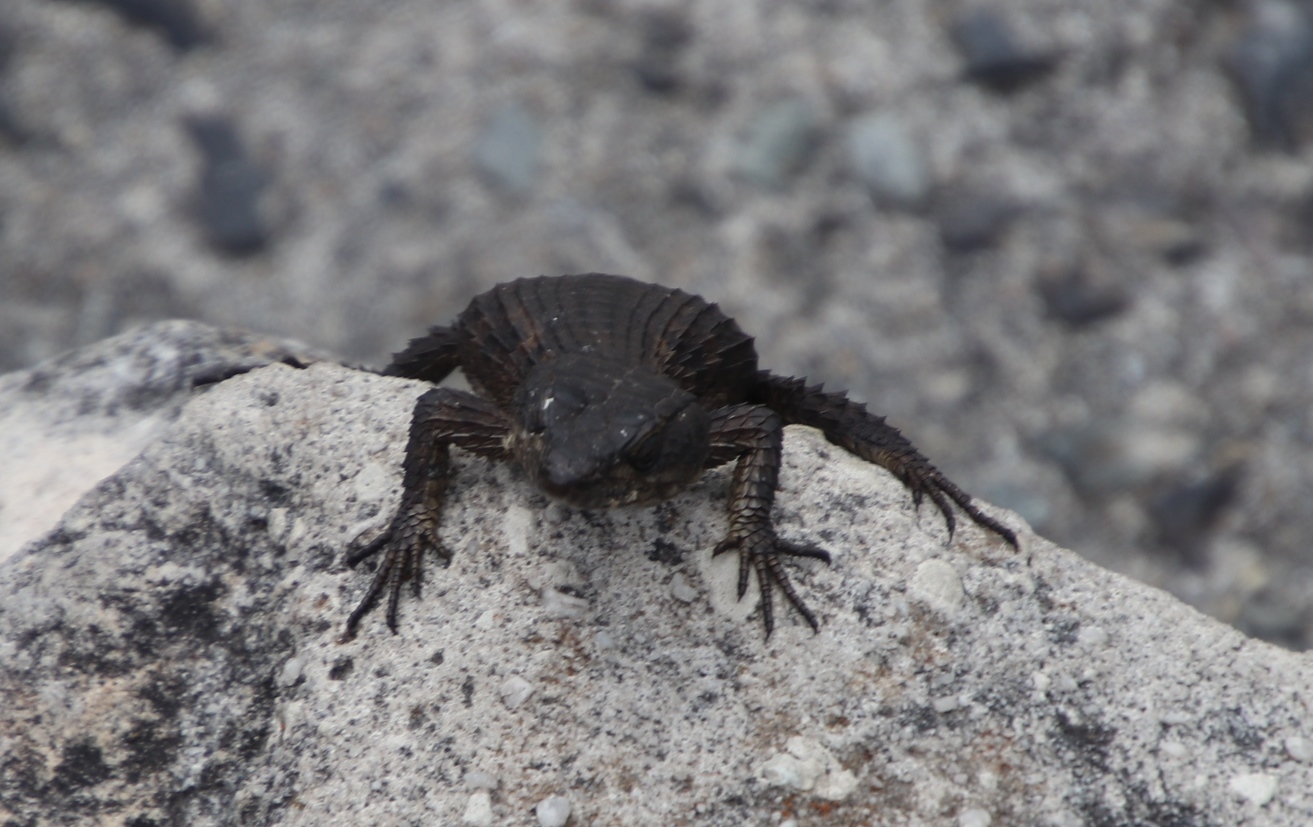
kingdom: Animalia
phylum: Chordata
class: Squamata
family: Cordylidae
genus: Cordylus
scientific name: Cordylus niger
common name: Black girdled lizard
